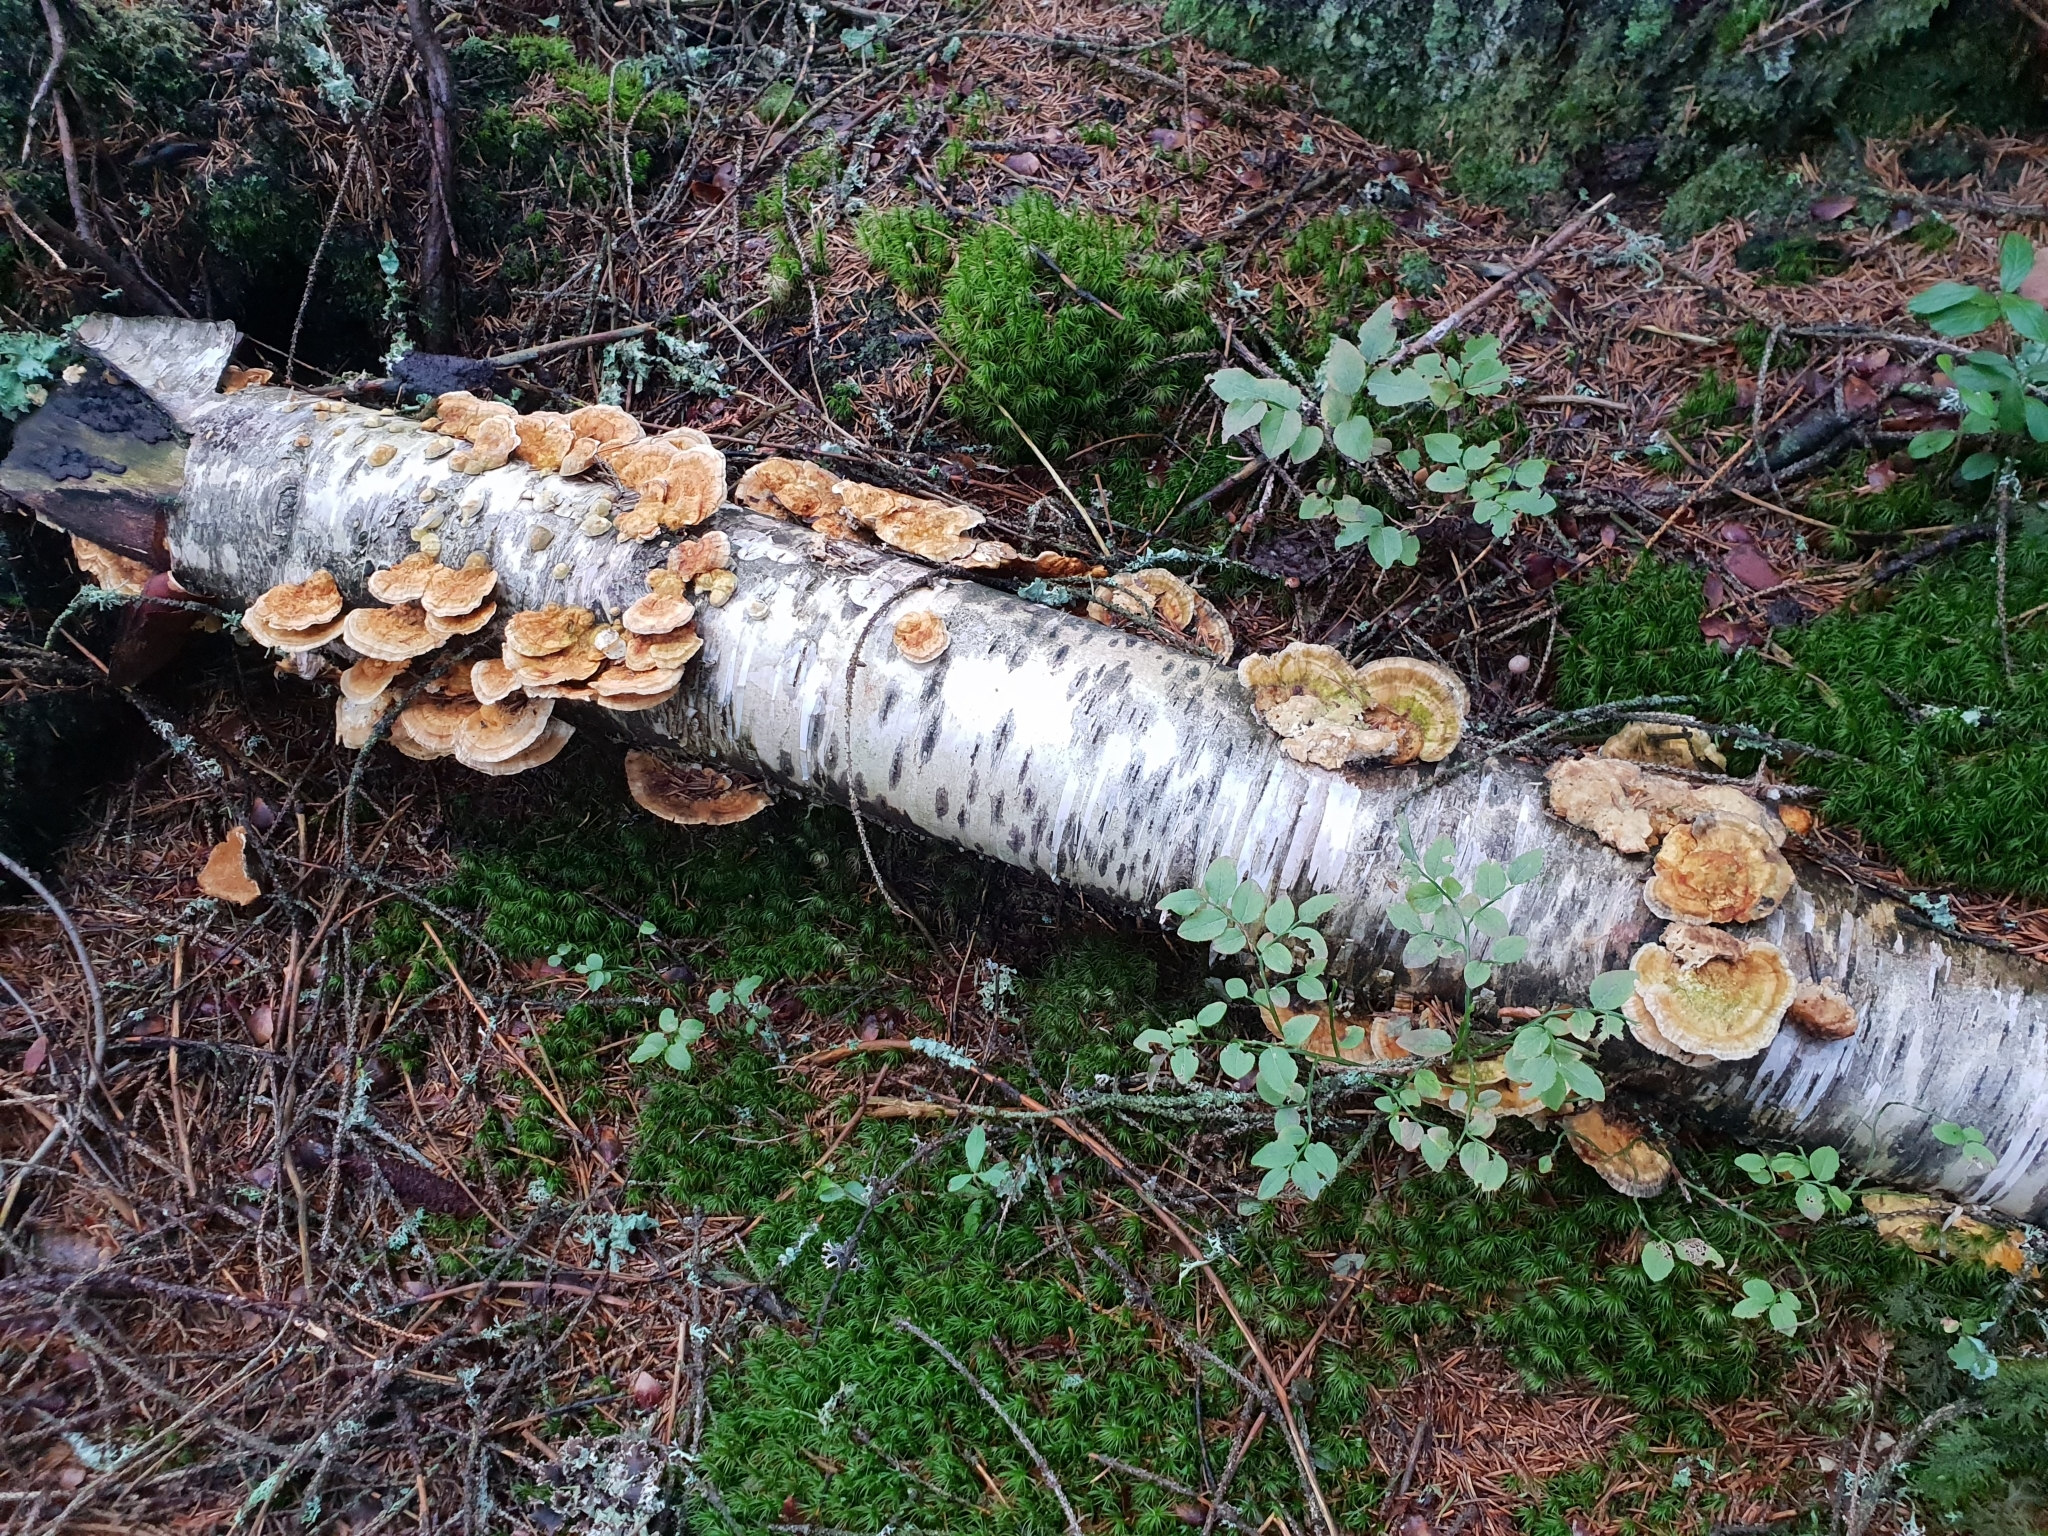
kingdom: Fungi
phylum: Basidiomycota
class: Agaricomycetes
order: Polyporales
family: Polyporaceae
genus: Trametes
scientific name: Trametes ochracea
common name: Ochre bracket
